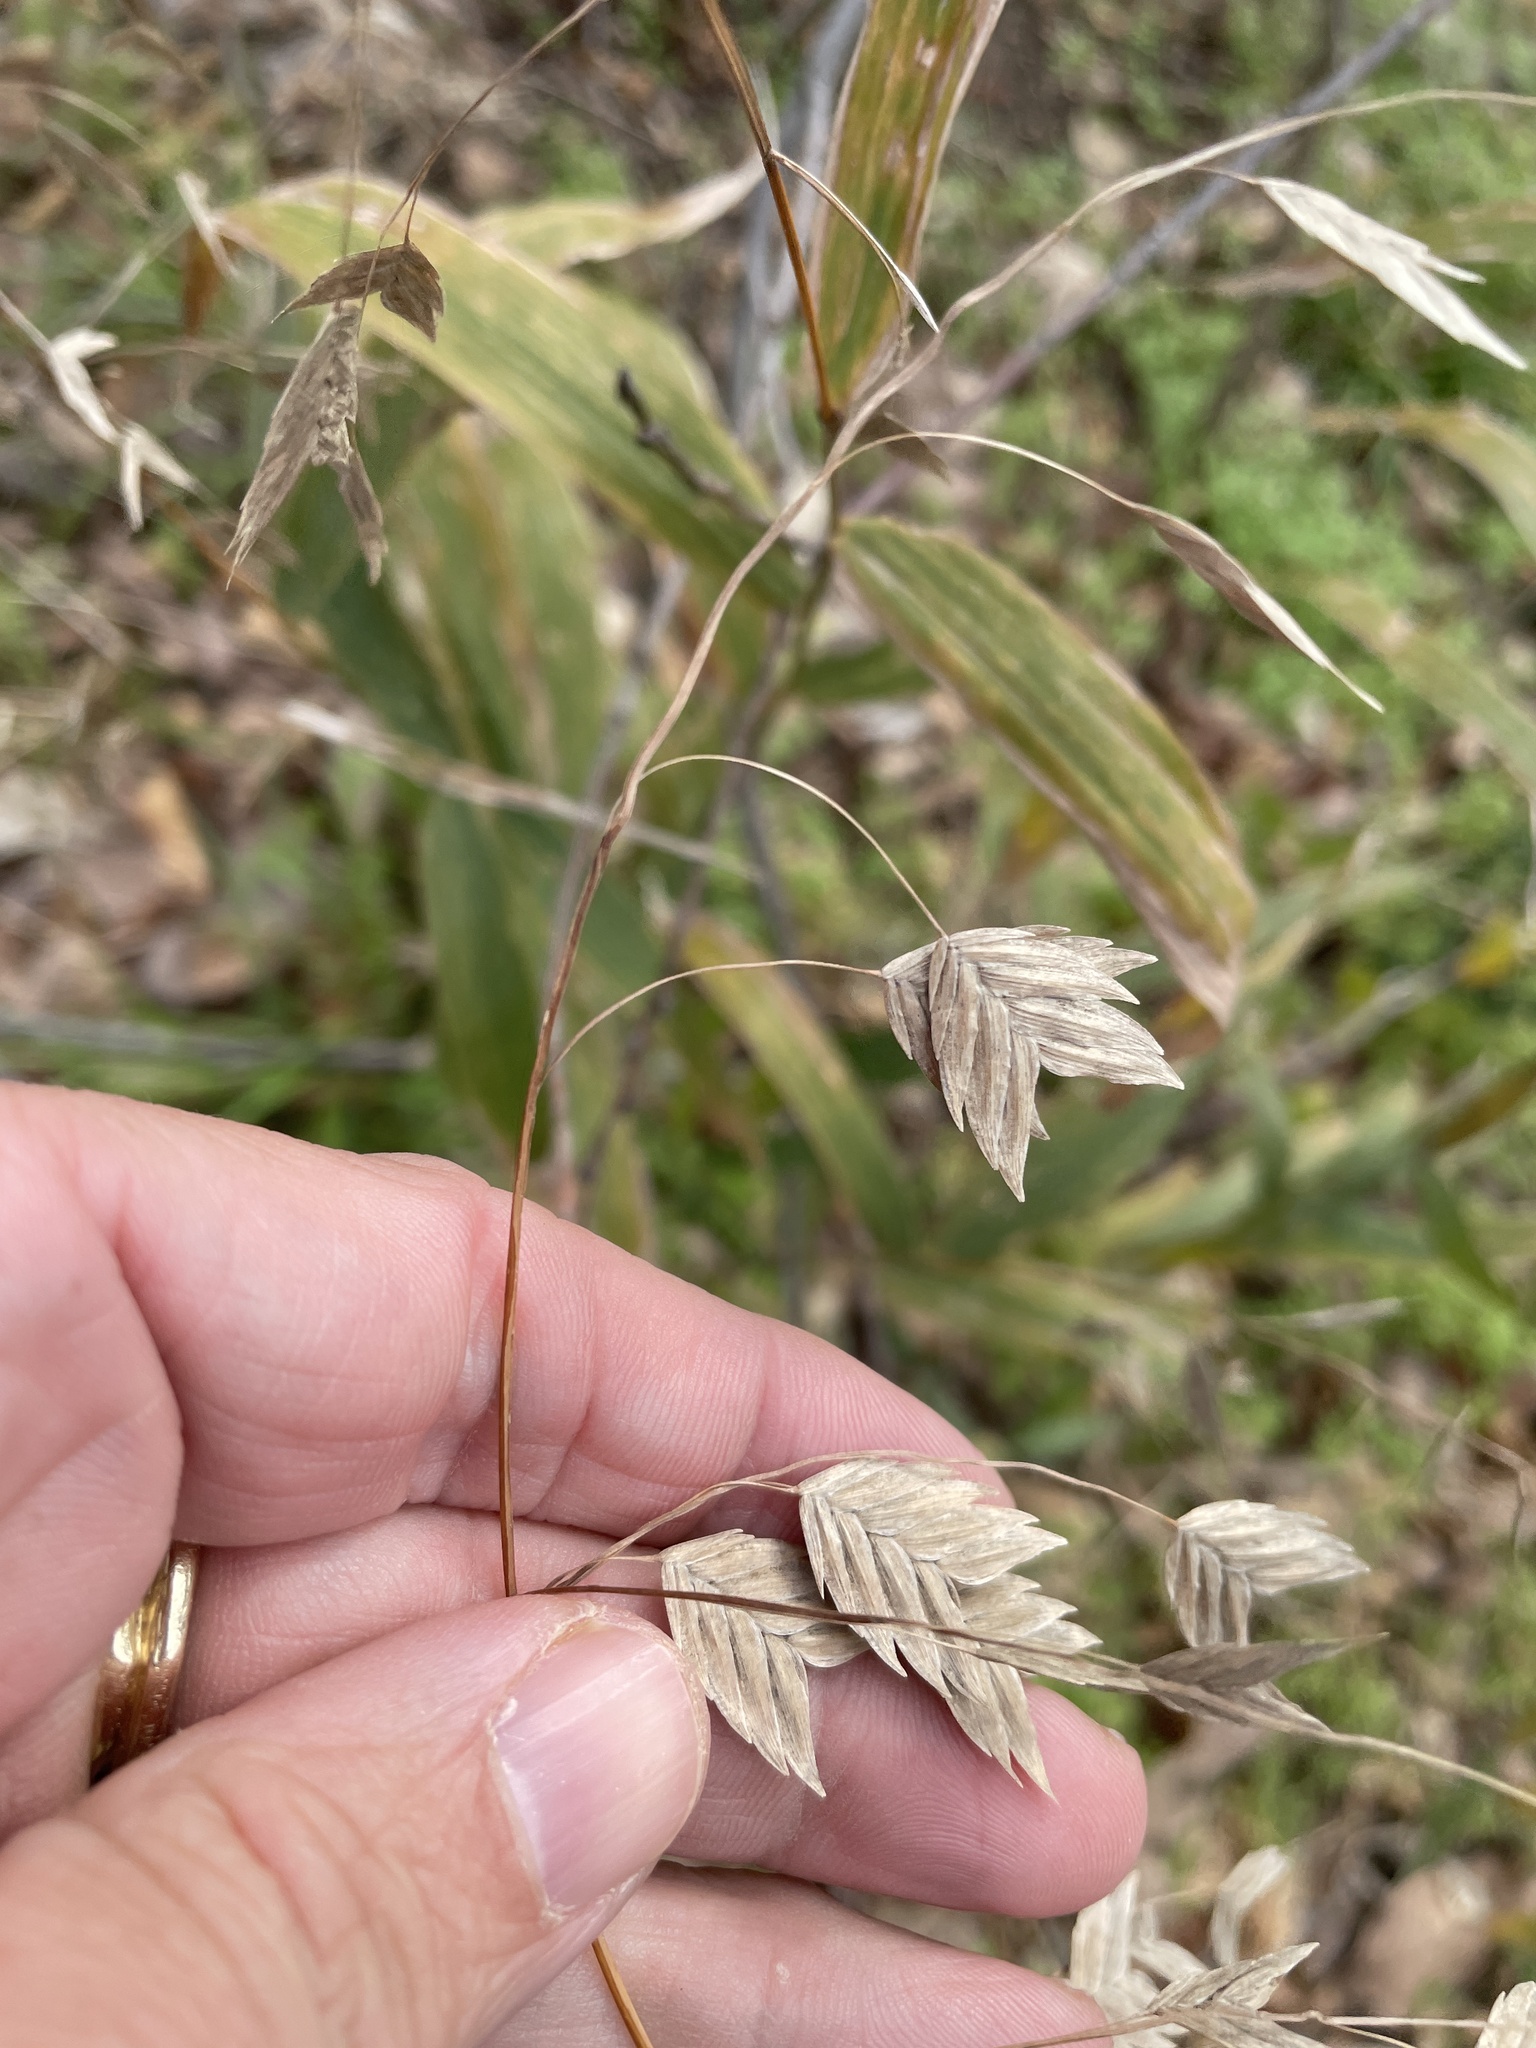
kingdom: Plantae
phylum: Tracheophyta
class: Liliopsida
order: Poales
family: Poaceae
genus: Chasmanthium
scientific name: Chasmanthium latifolium
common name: Broad-leaved chasmanthium
